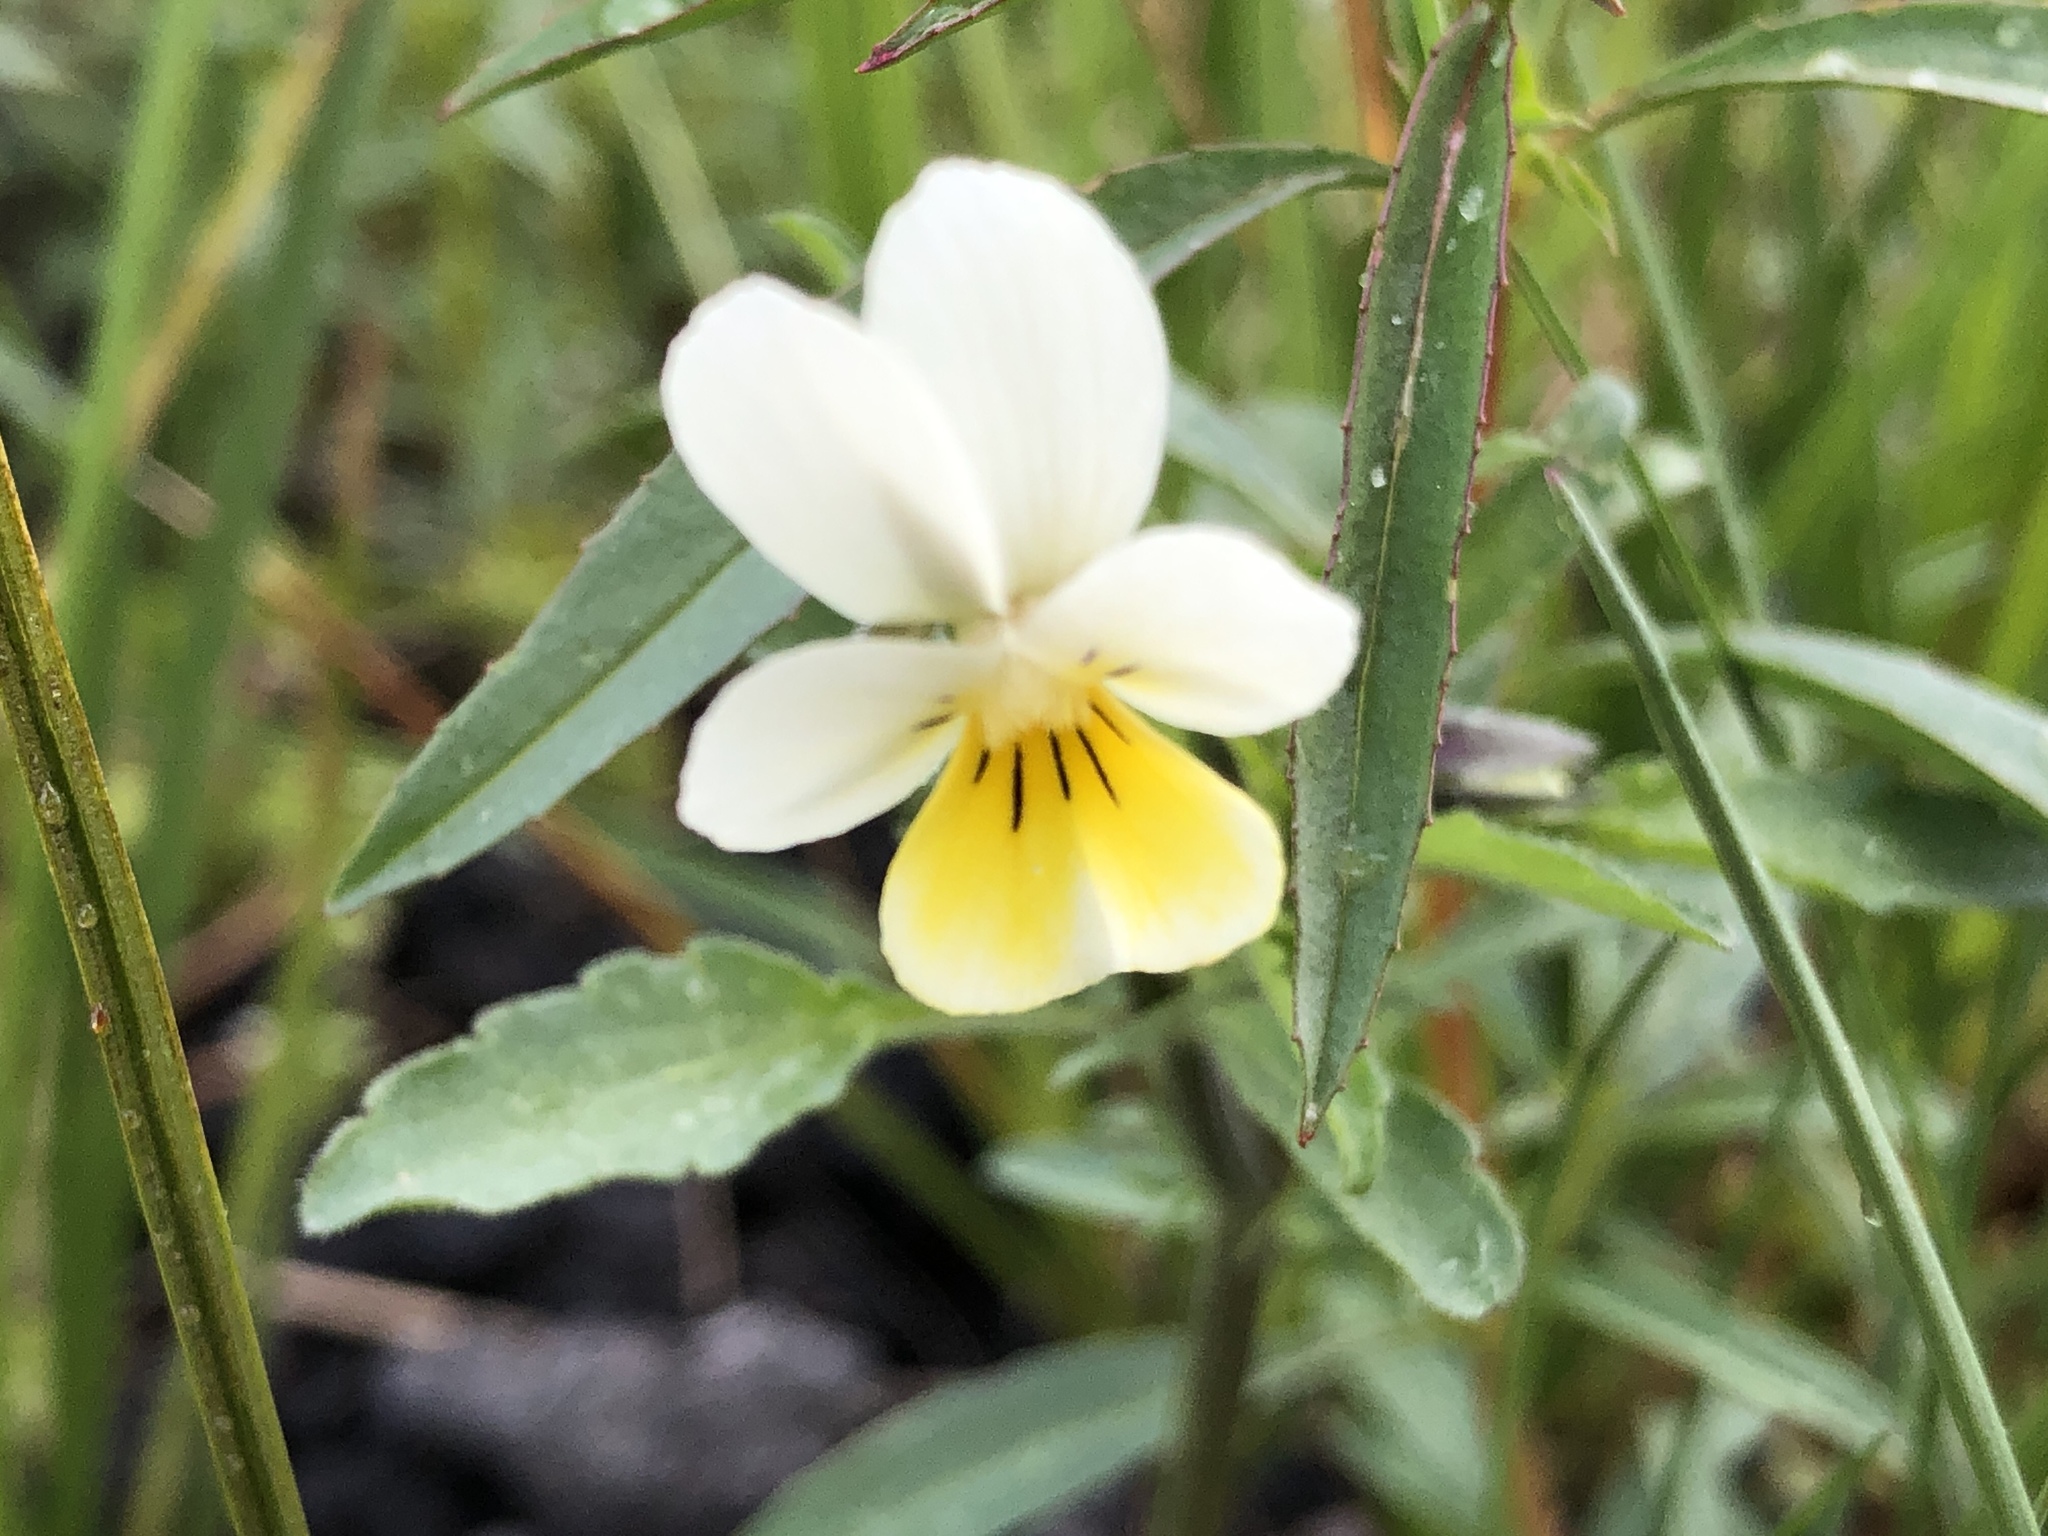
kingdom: Plantae
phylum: Tracheophyta
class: Magnoliopsida
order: Malpighiales
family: Violaceae
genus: Viola
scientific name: Viola arvensis
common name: Field pansy
